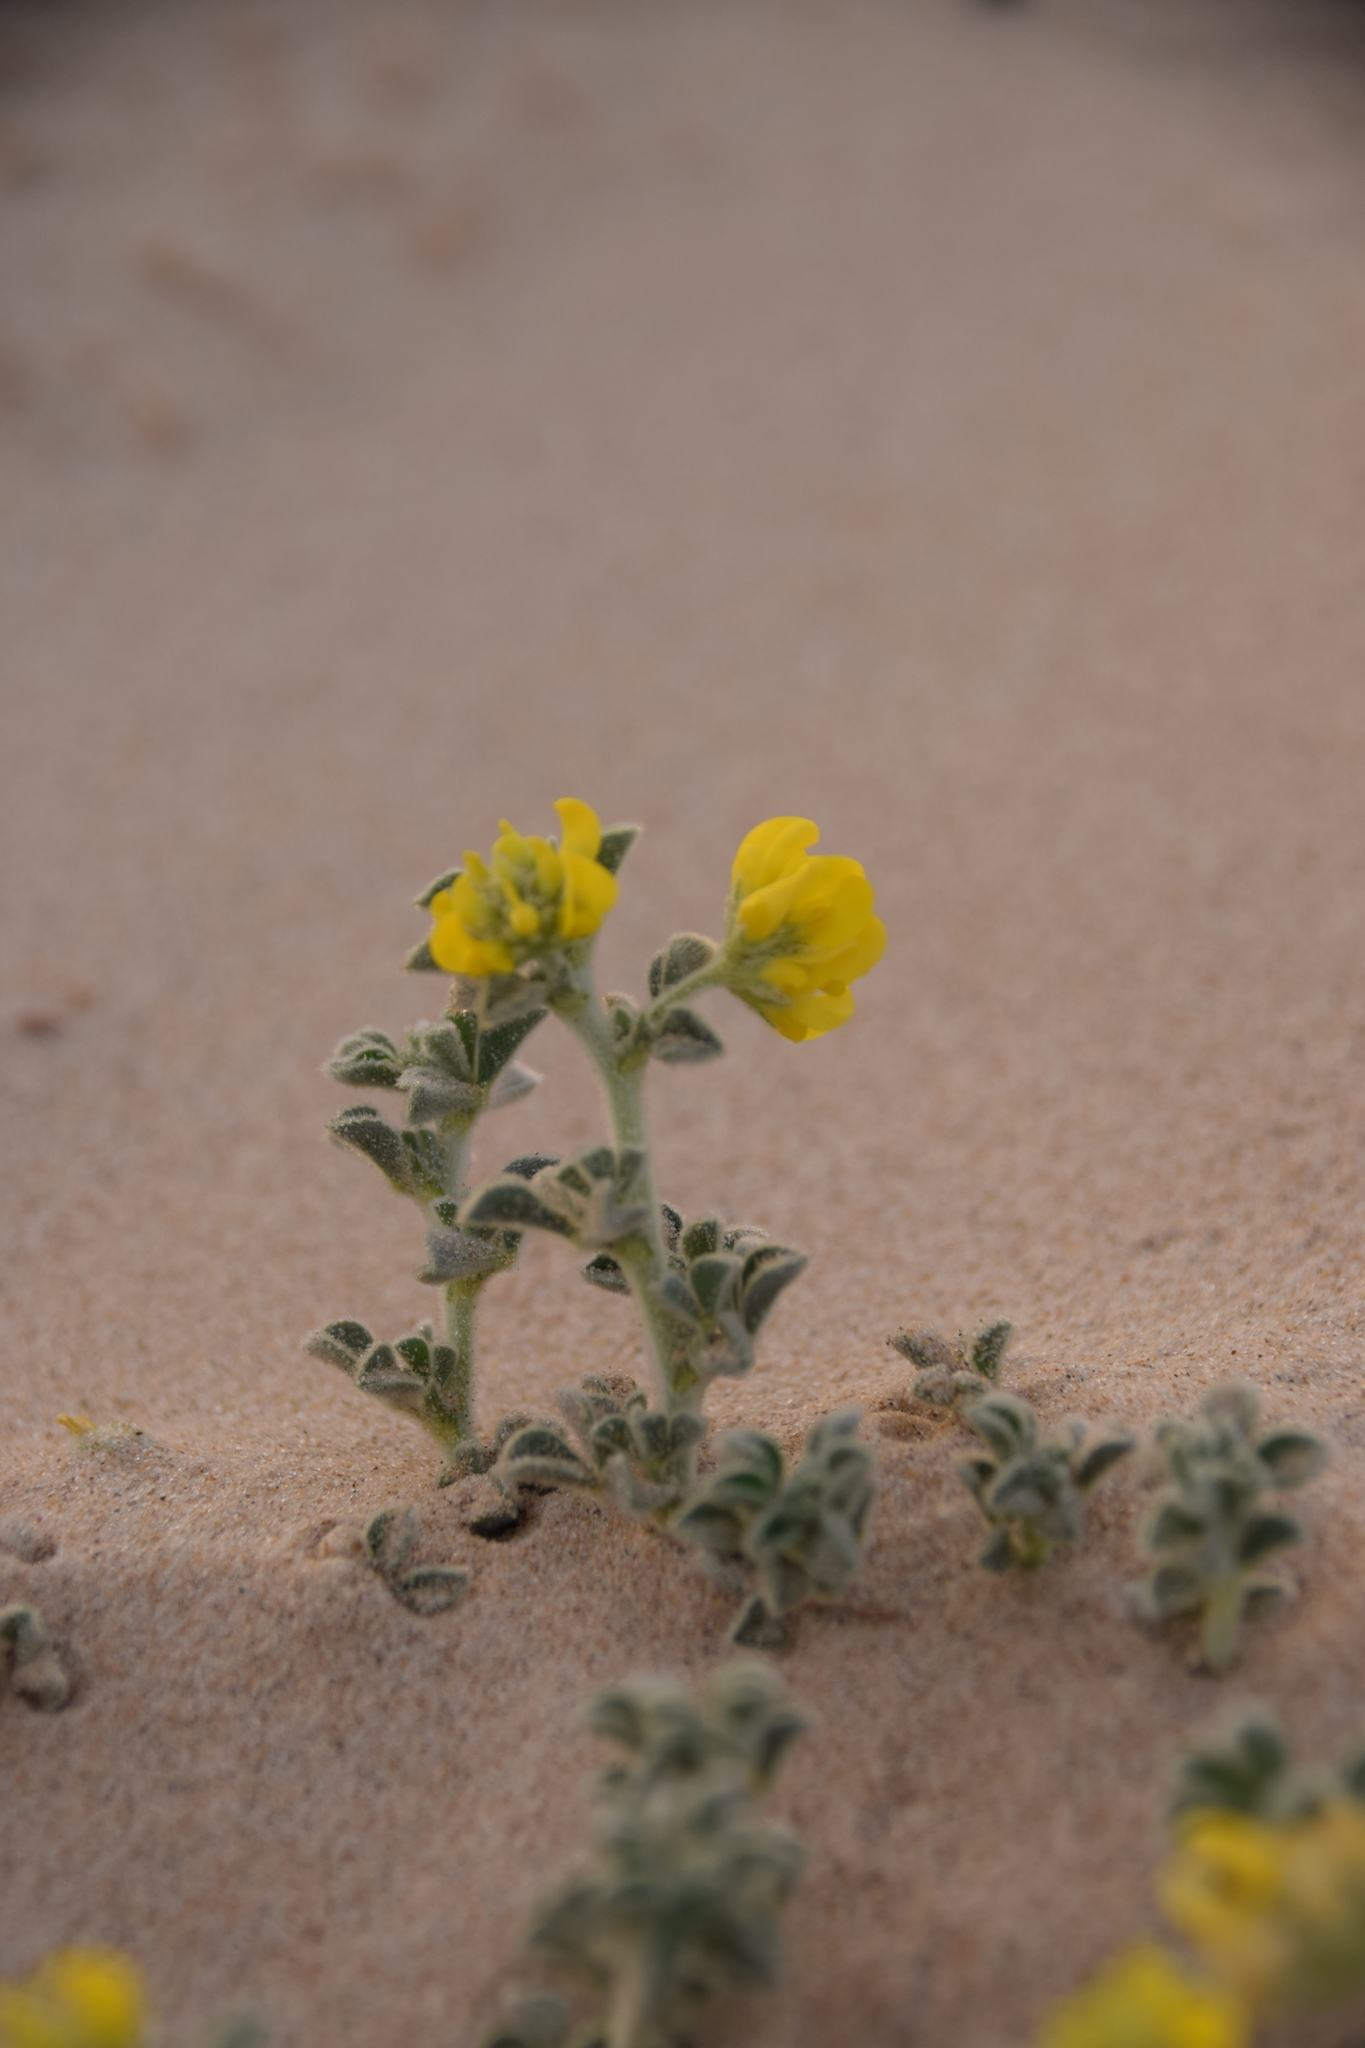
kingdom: Plantae
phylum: Tracheophyta
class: Magnoliopsida
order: Fabales
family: Fabaceae
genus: Medicago
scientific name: Medicago marina
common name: Sea medick
